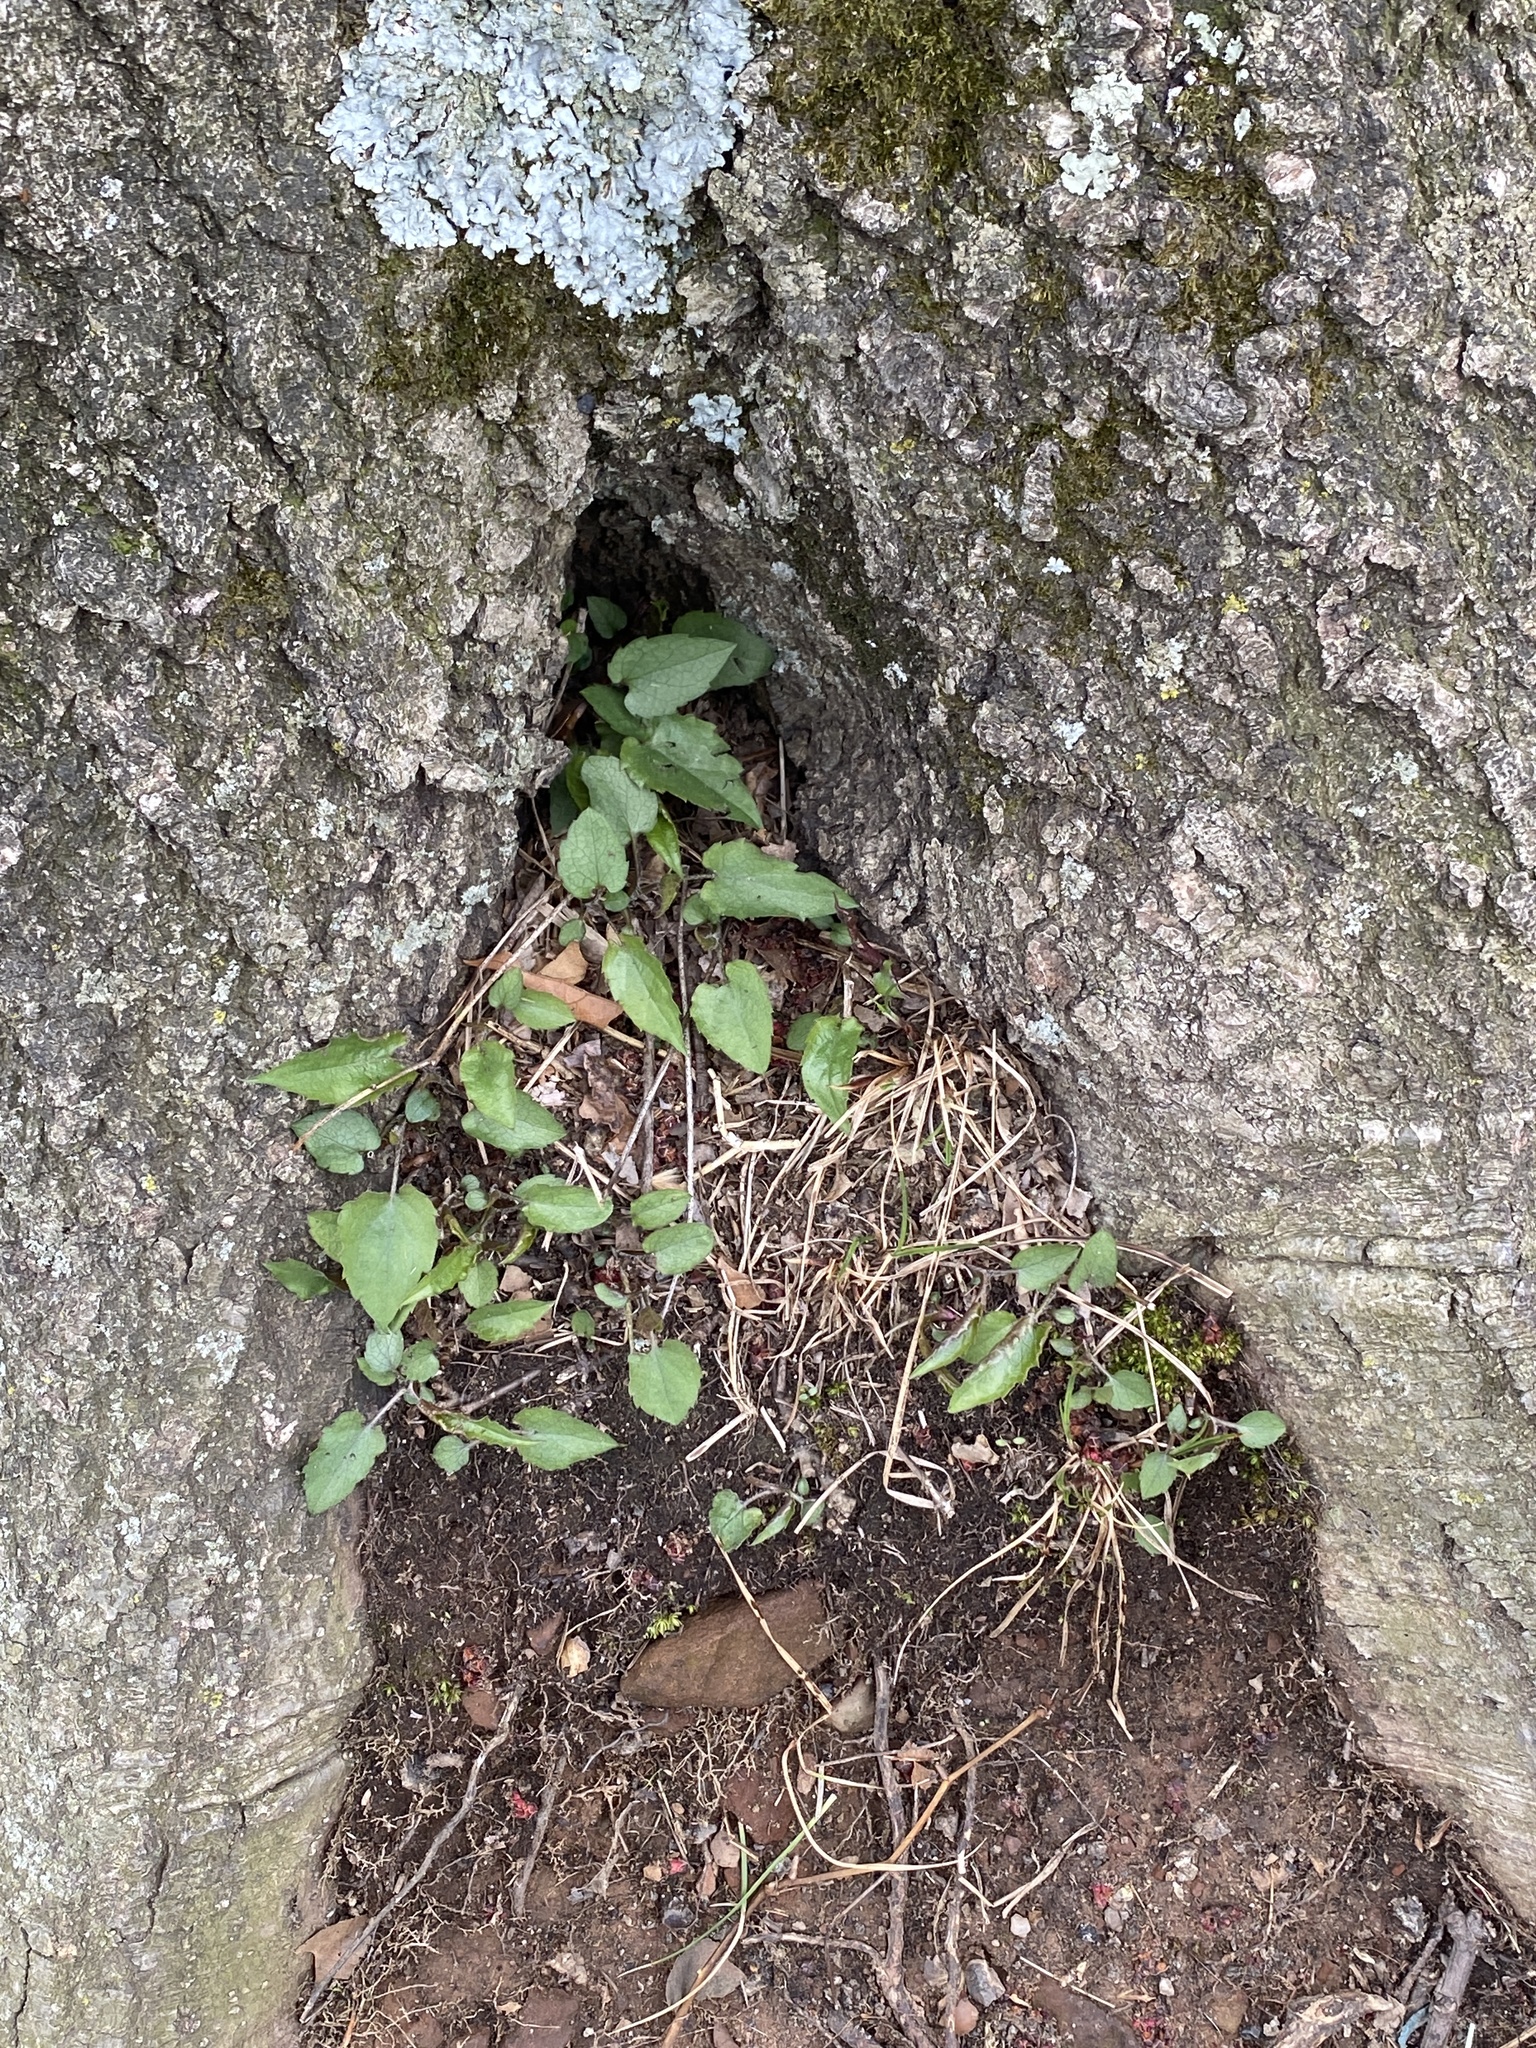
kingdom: Plantae
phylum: Tracheophyta
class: Magnoliopsida
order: Asterales
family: Asteraceae
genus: Eurybia
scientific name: Eurybia divaricata
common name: White wood aster
